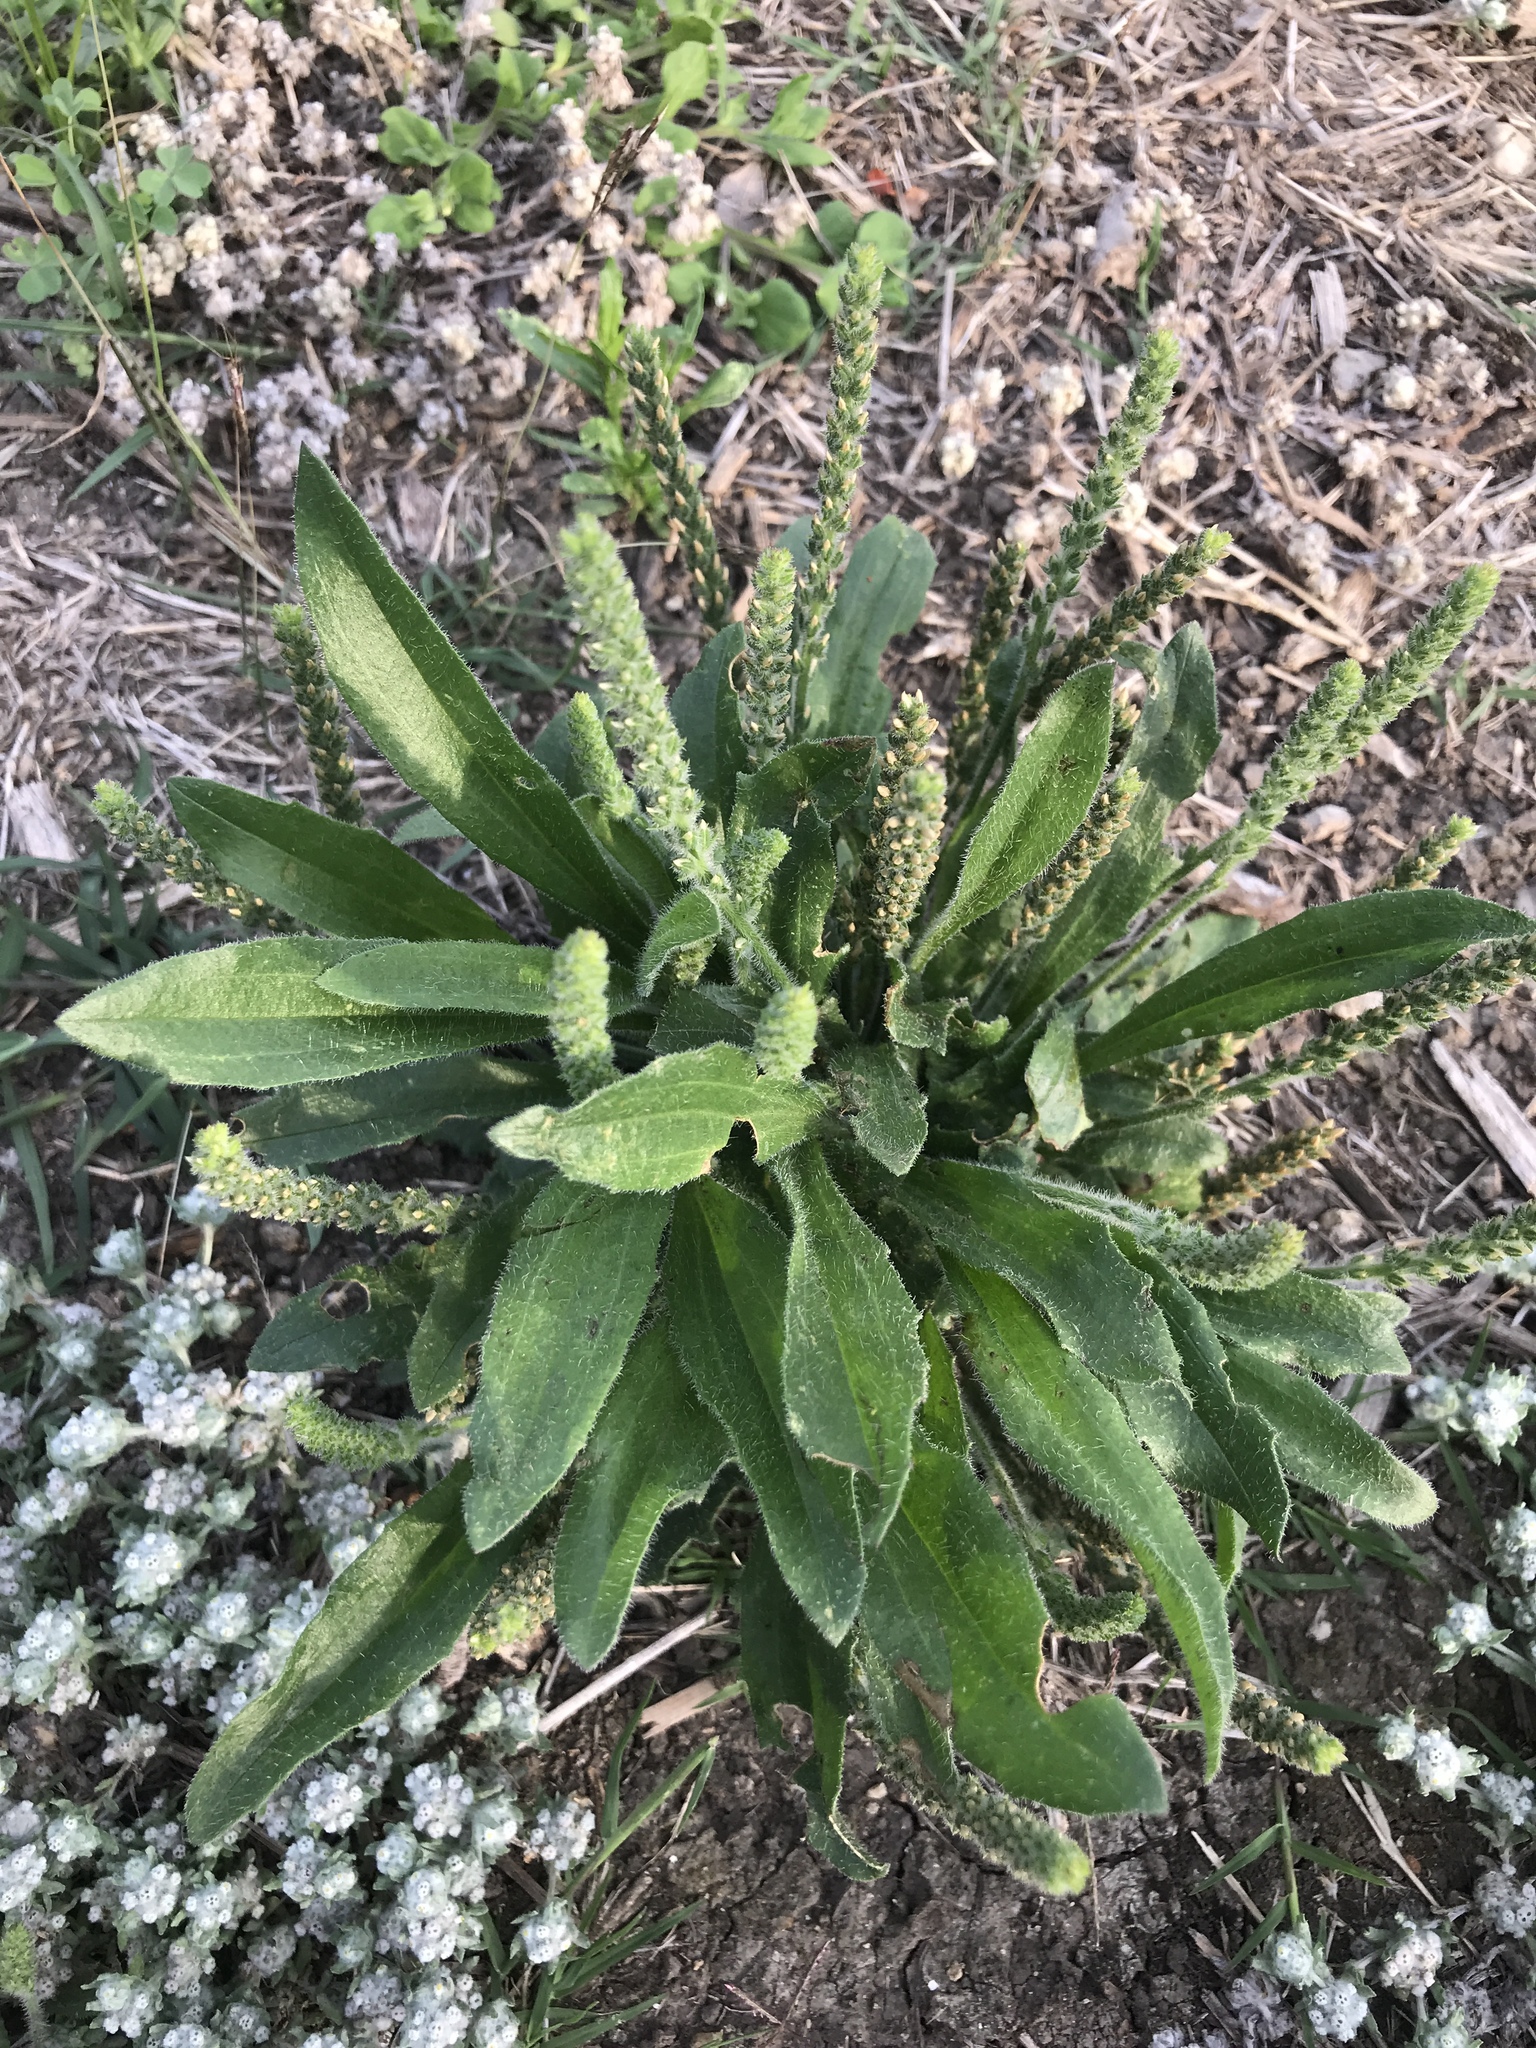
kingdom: Plantae
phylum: Tracheophyta
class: Magnoliopsida
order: Lamiales
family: Plantaginaceae
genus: Plantago
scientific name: Plantago rhodosperma
